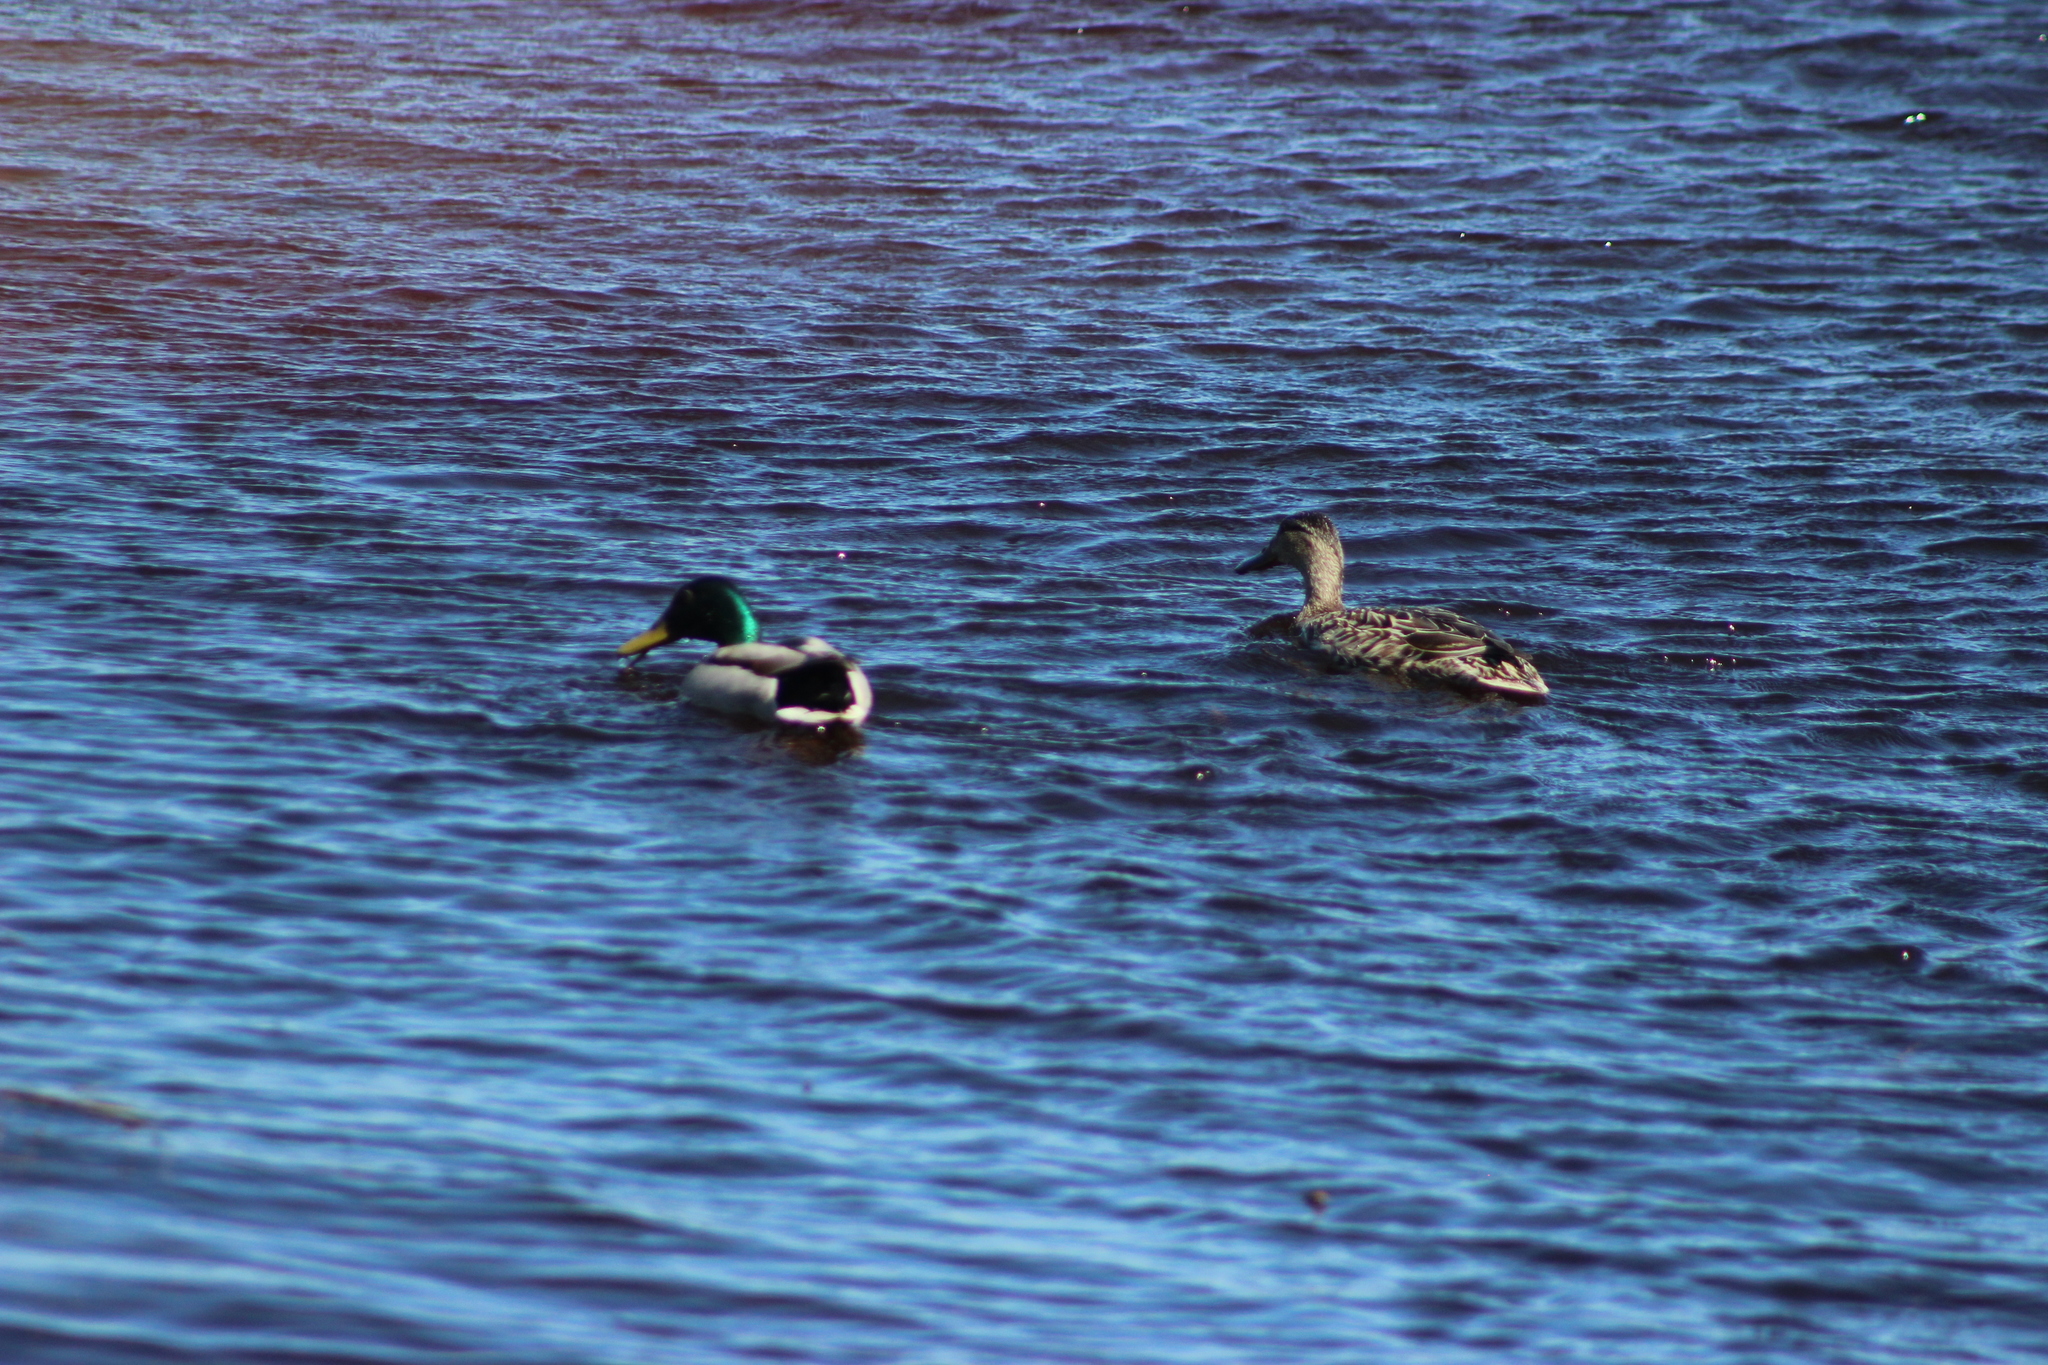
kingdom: Animalia
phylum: Chordata
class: Aves
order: Anseriformes
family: Anatidae
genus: Anas
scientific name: Anas platyrhynchos
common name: Mallard
